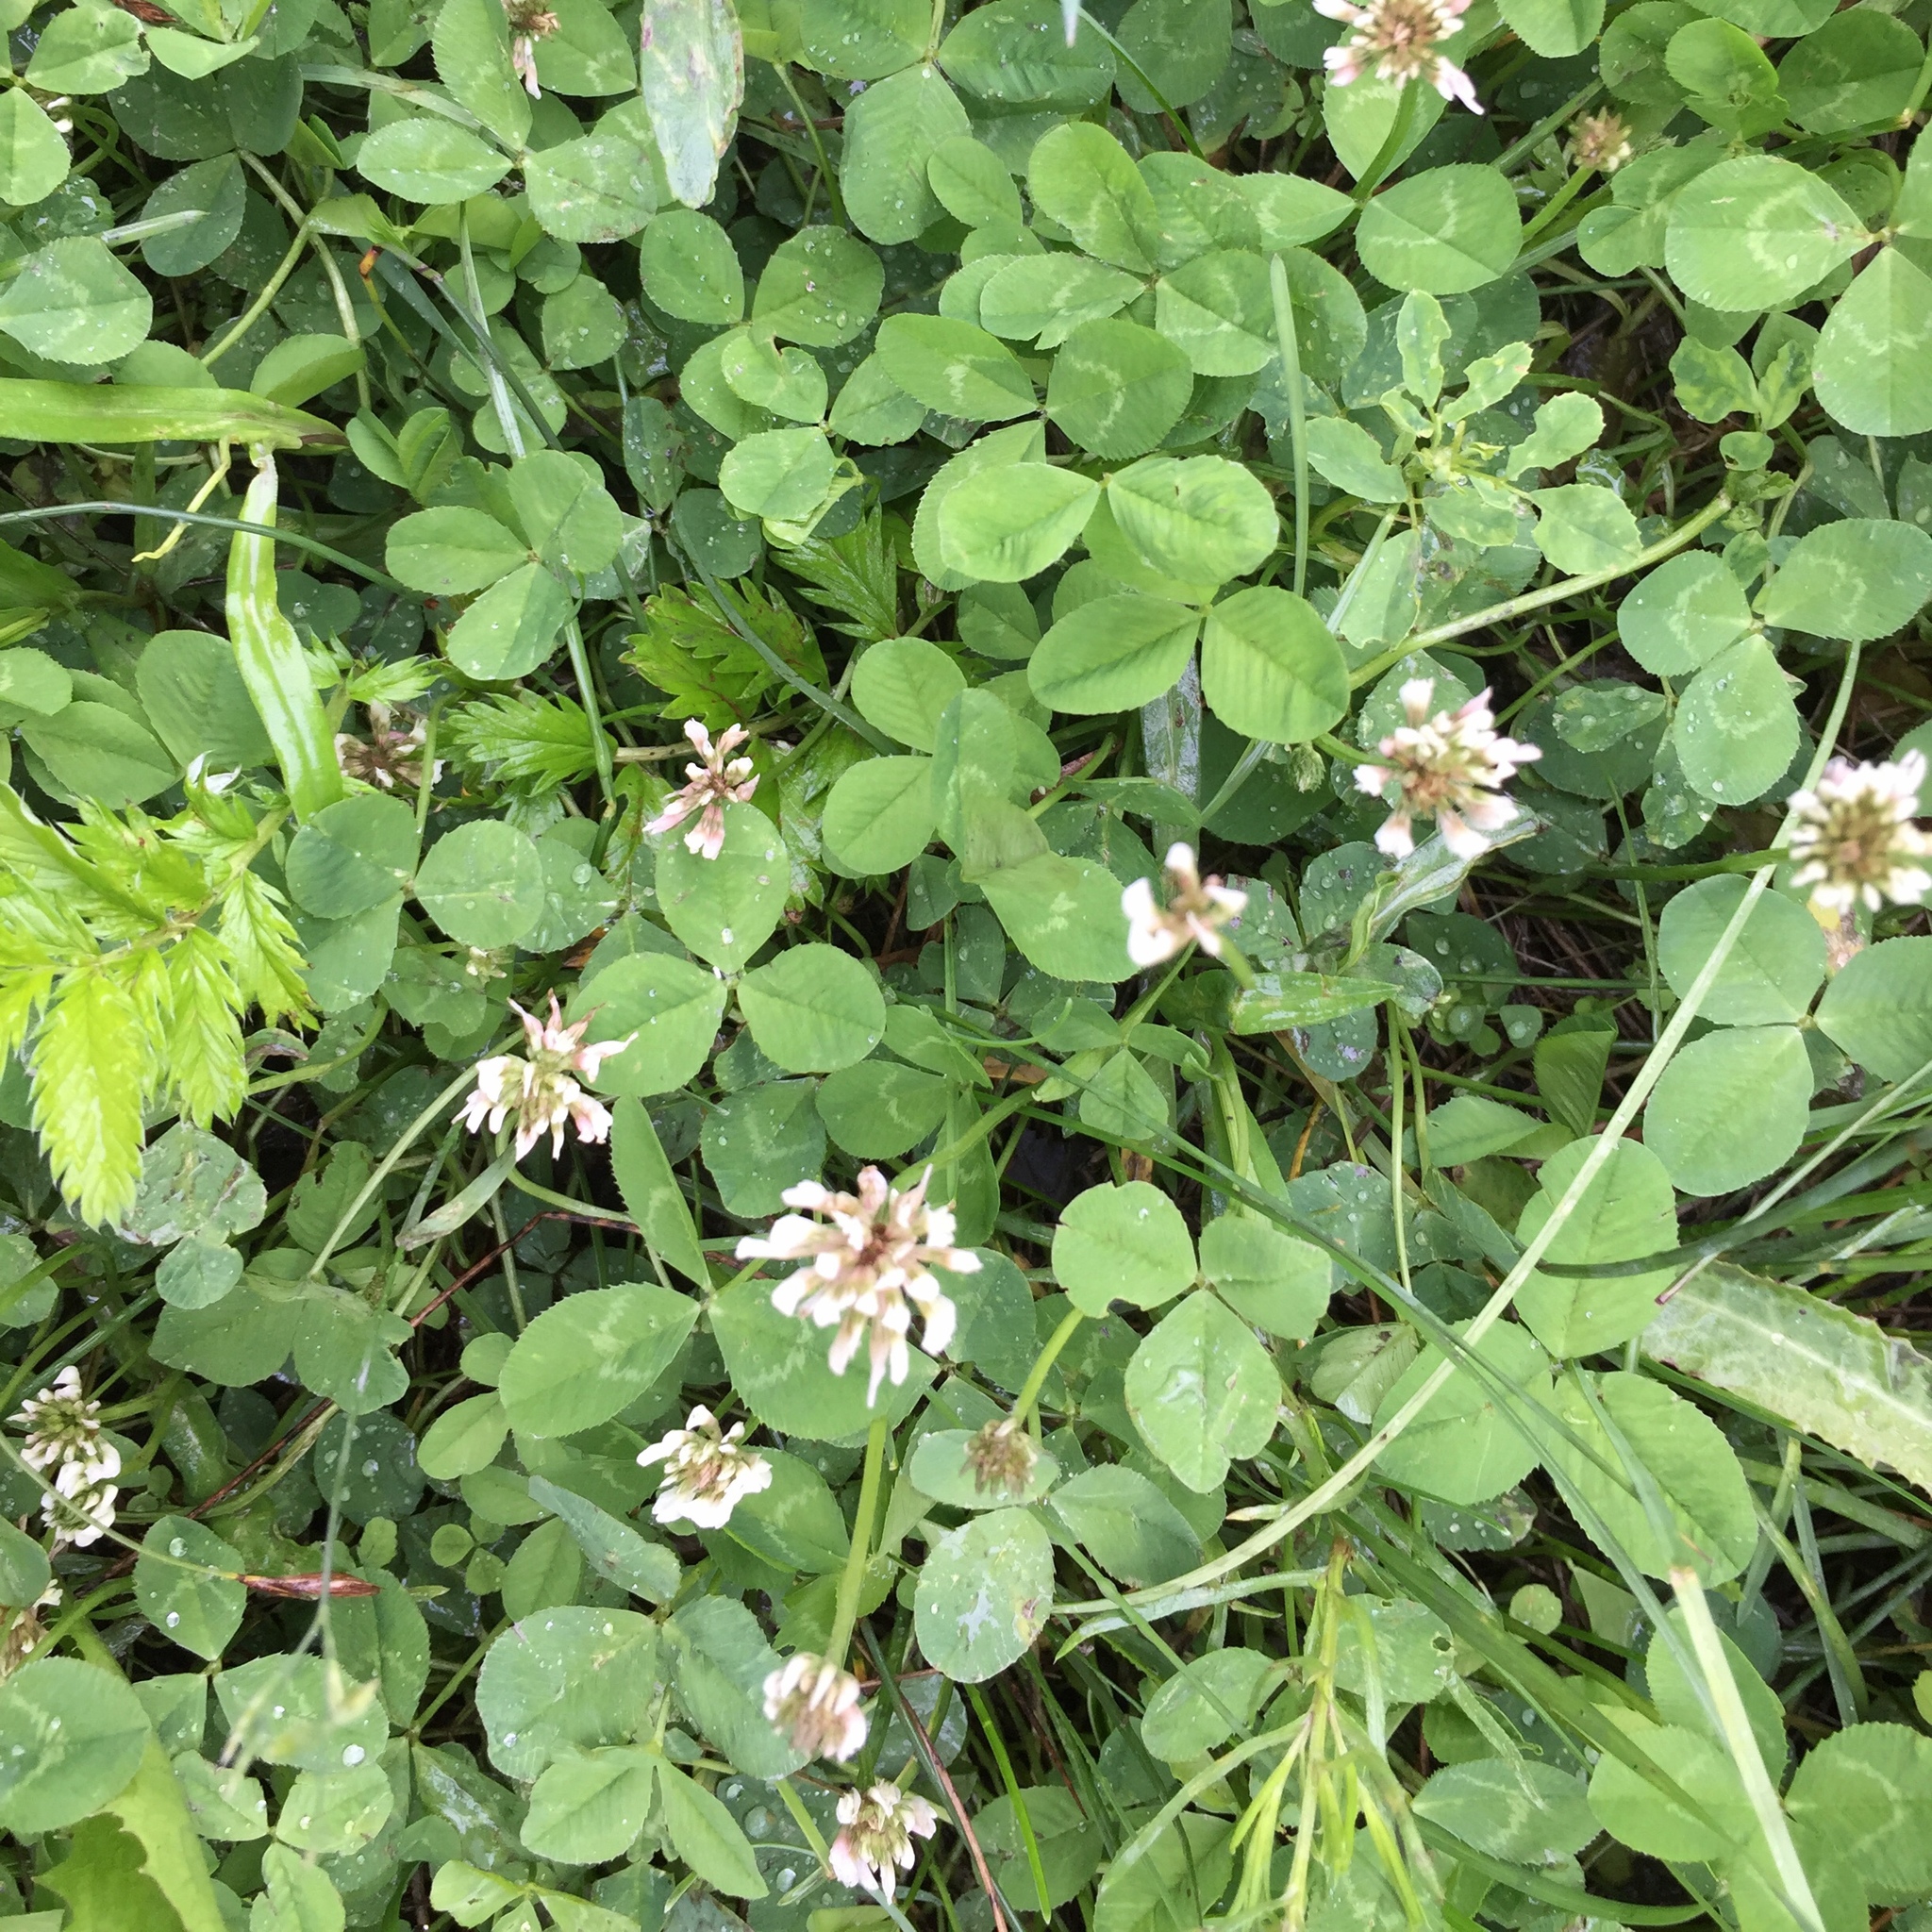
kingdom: Plantae
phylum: Tracheophyta
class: Magnoliopsida
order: Fabales
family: Fabaceae
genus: Trifolium
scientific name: Trifolium repens
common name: White clover
